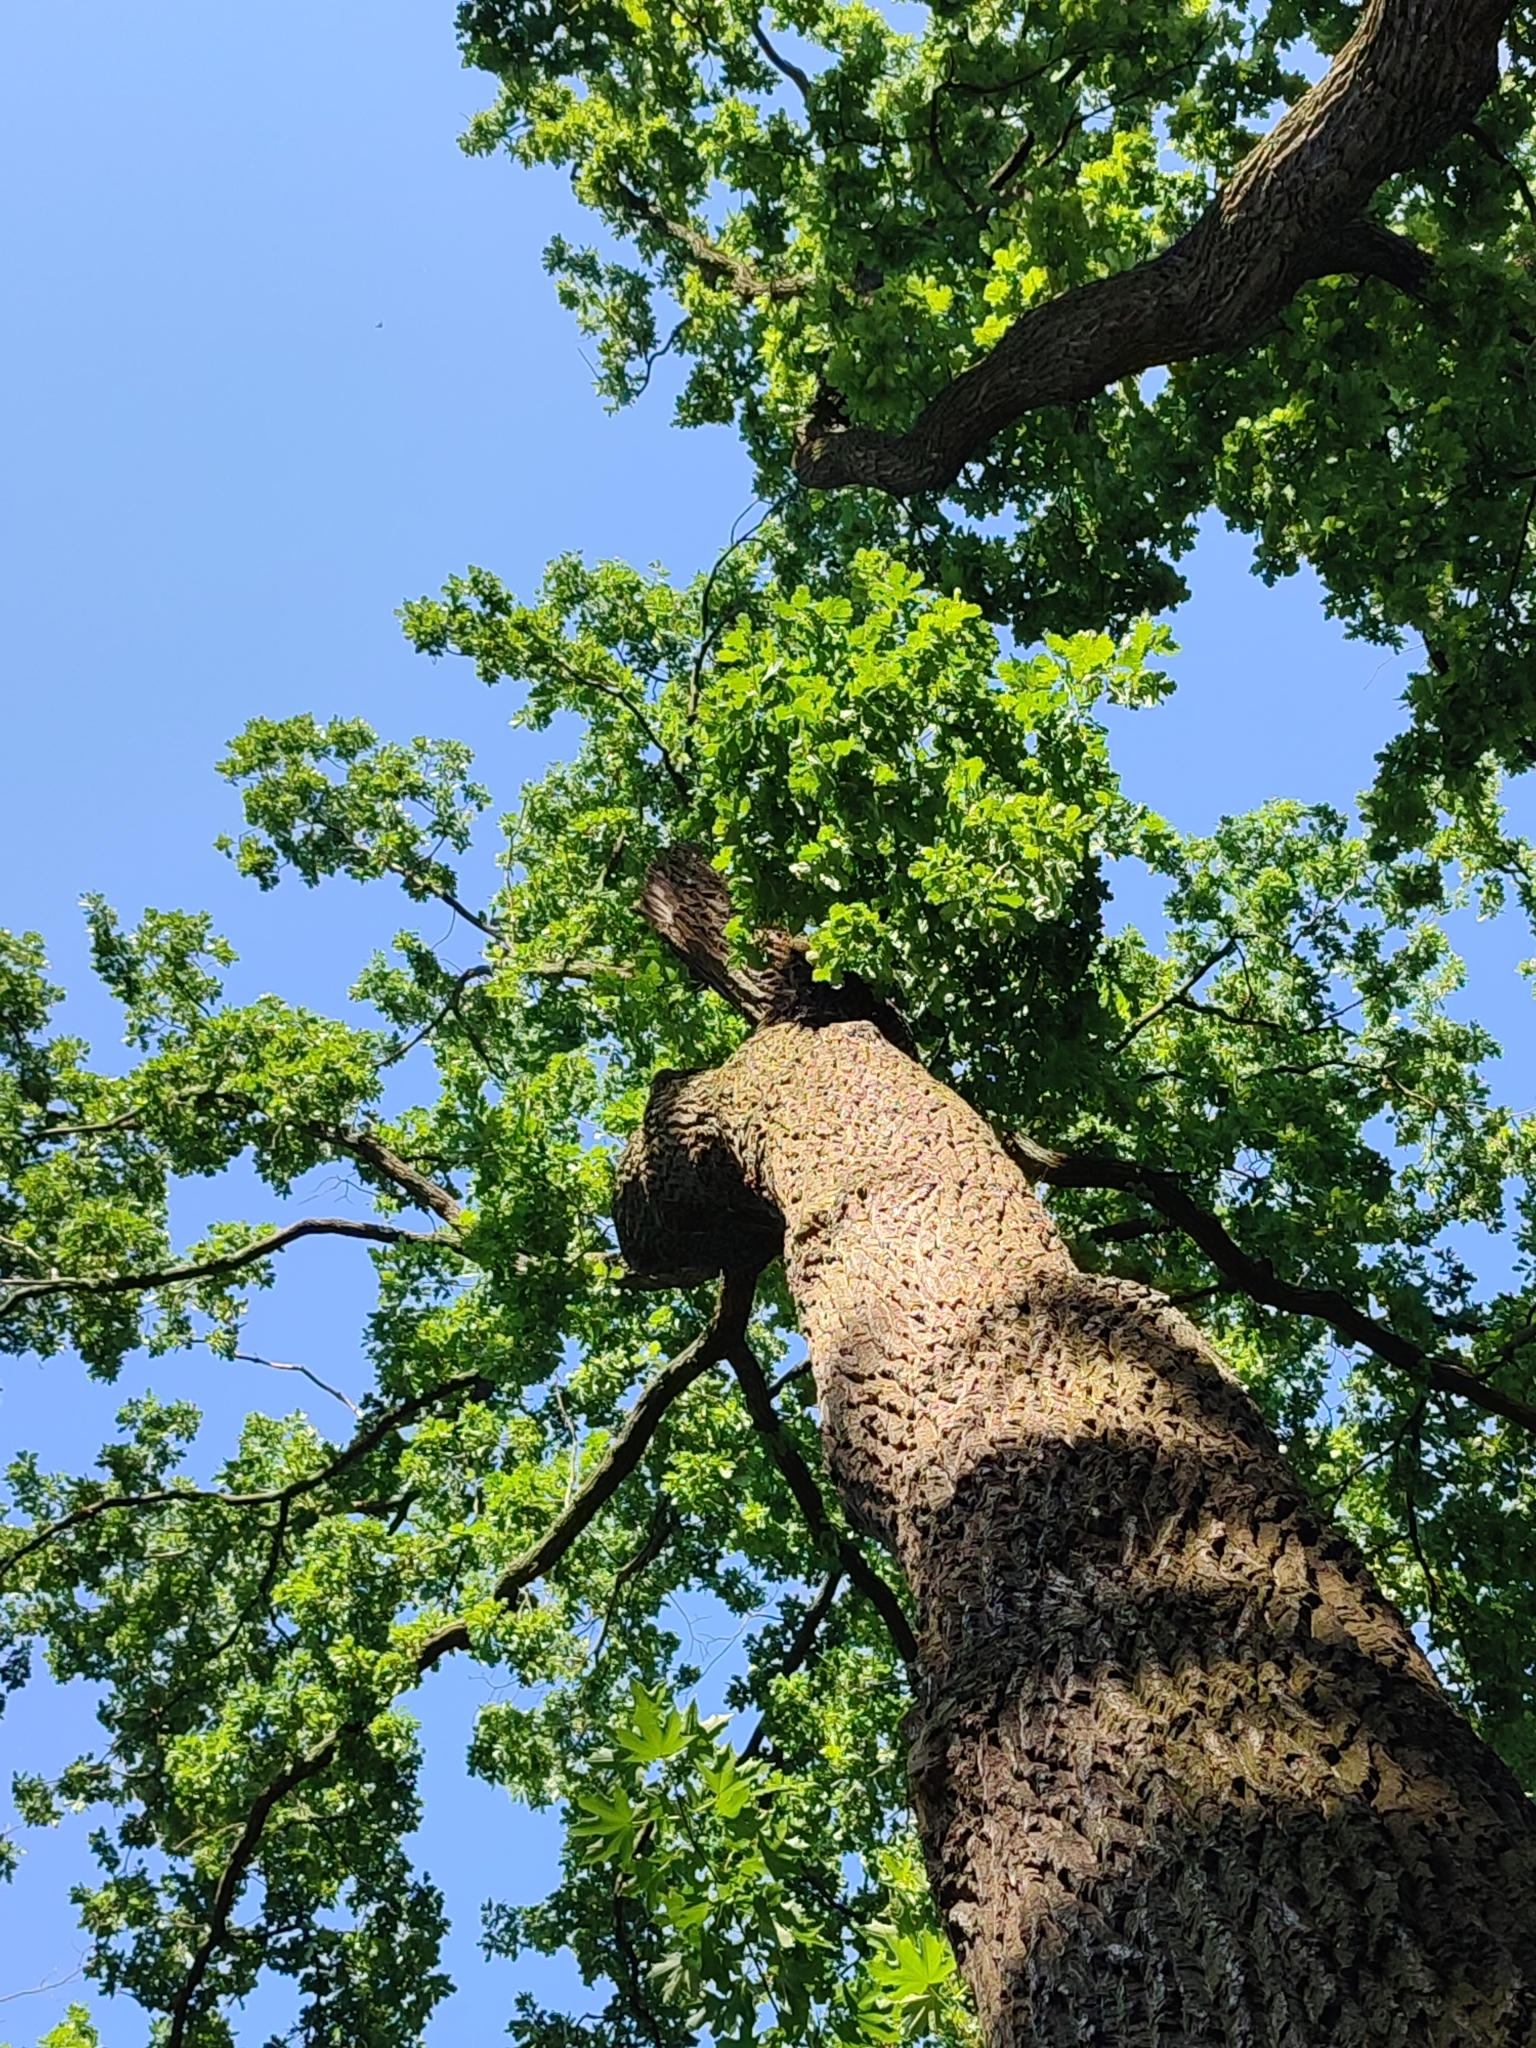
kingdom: Plantae
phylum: Tracheophyta
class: Magnoliopsida
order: Fagales
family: Fagaceae
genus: Quercus
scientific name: Quercus robur
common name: Pedunculate oak
